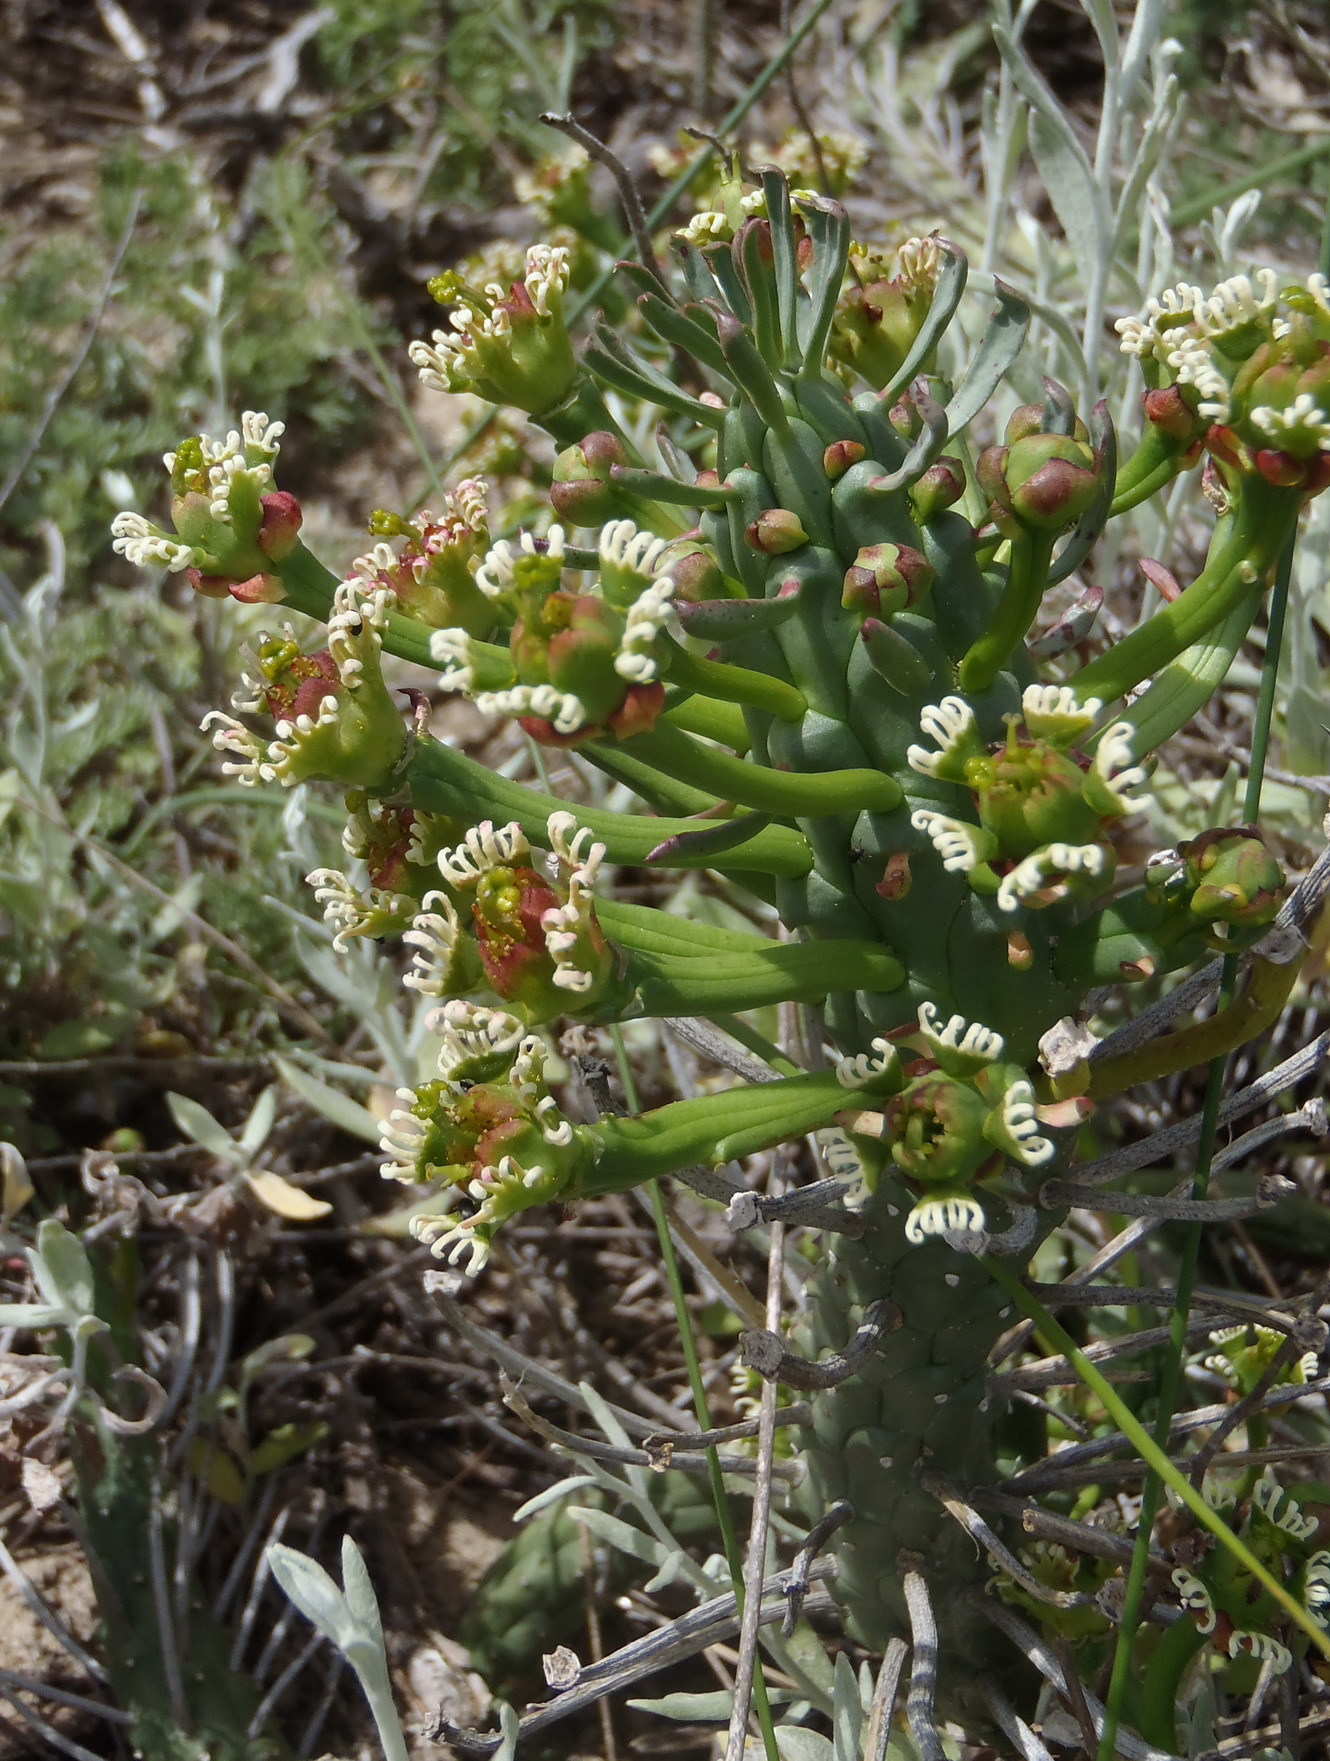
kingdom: Plantae
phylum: Tracheophyta
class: Magnoliopsida
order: Malpighiales
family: Euphorbiaceae
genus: Euphorbia
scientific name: Euphorbia caput-medusae
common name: Medusa's-head
